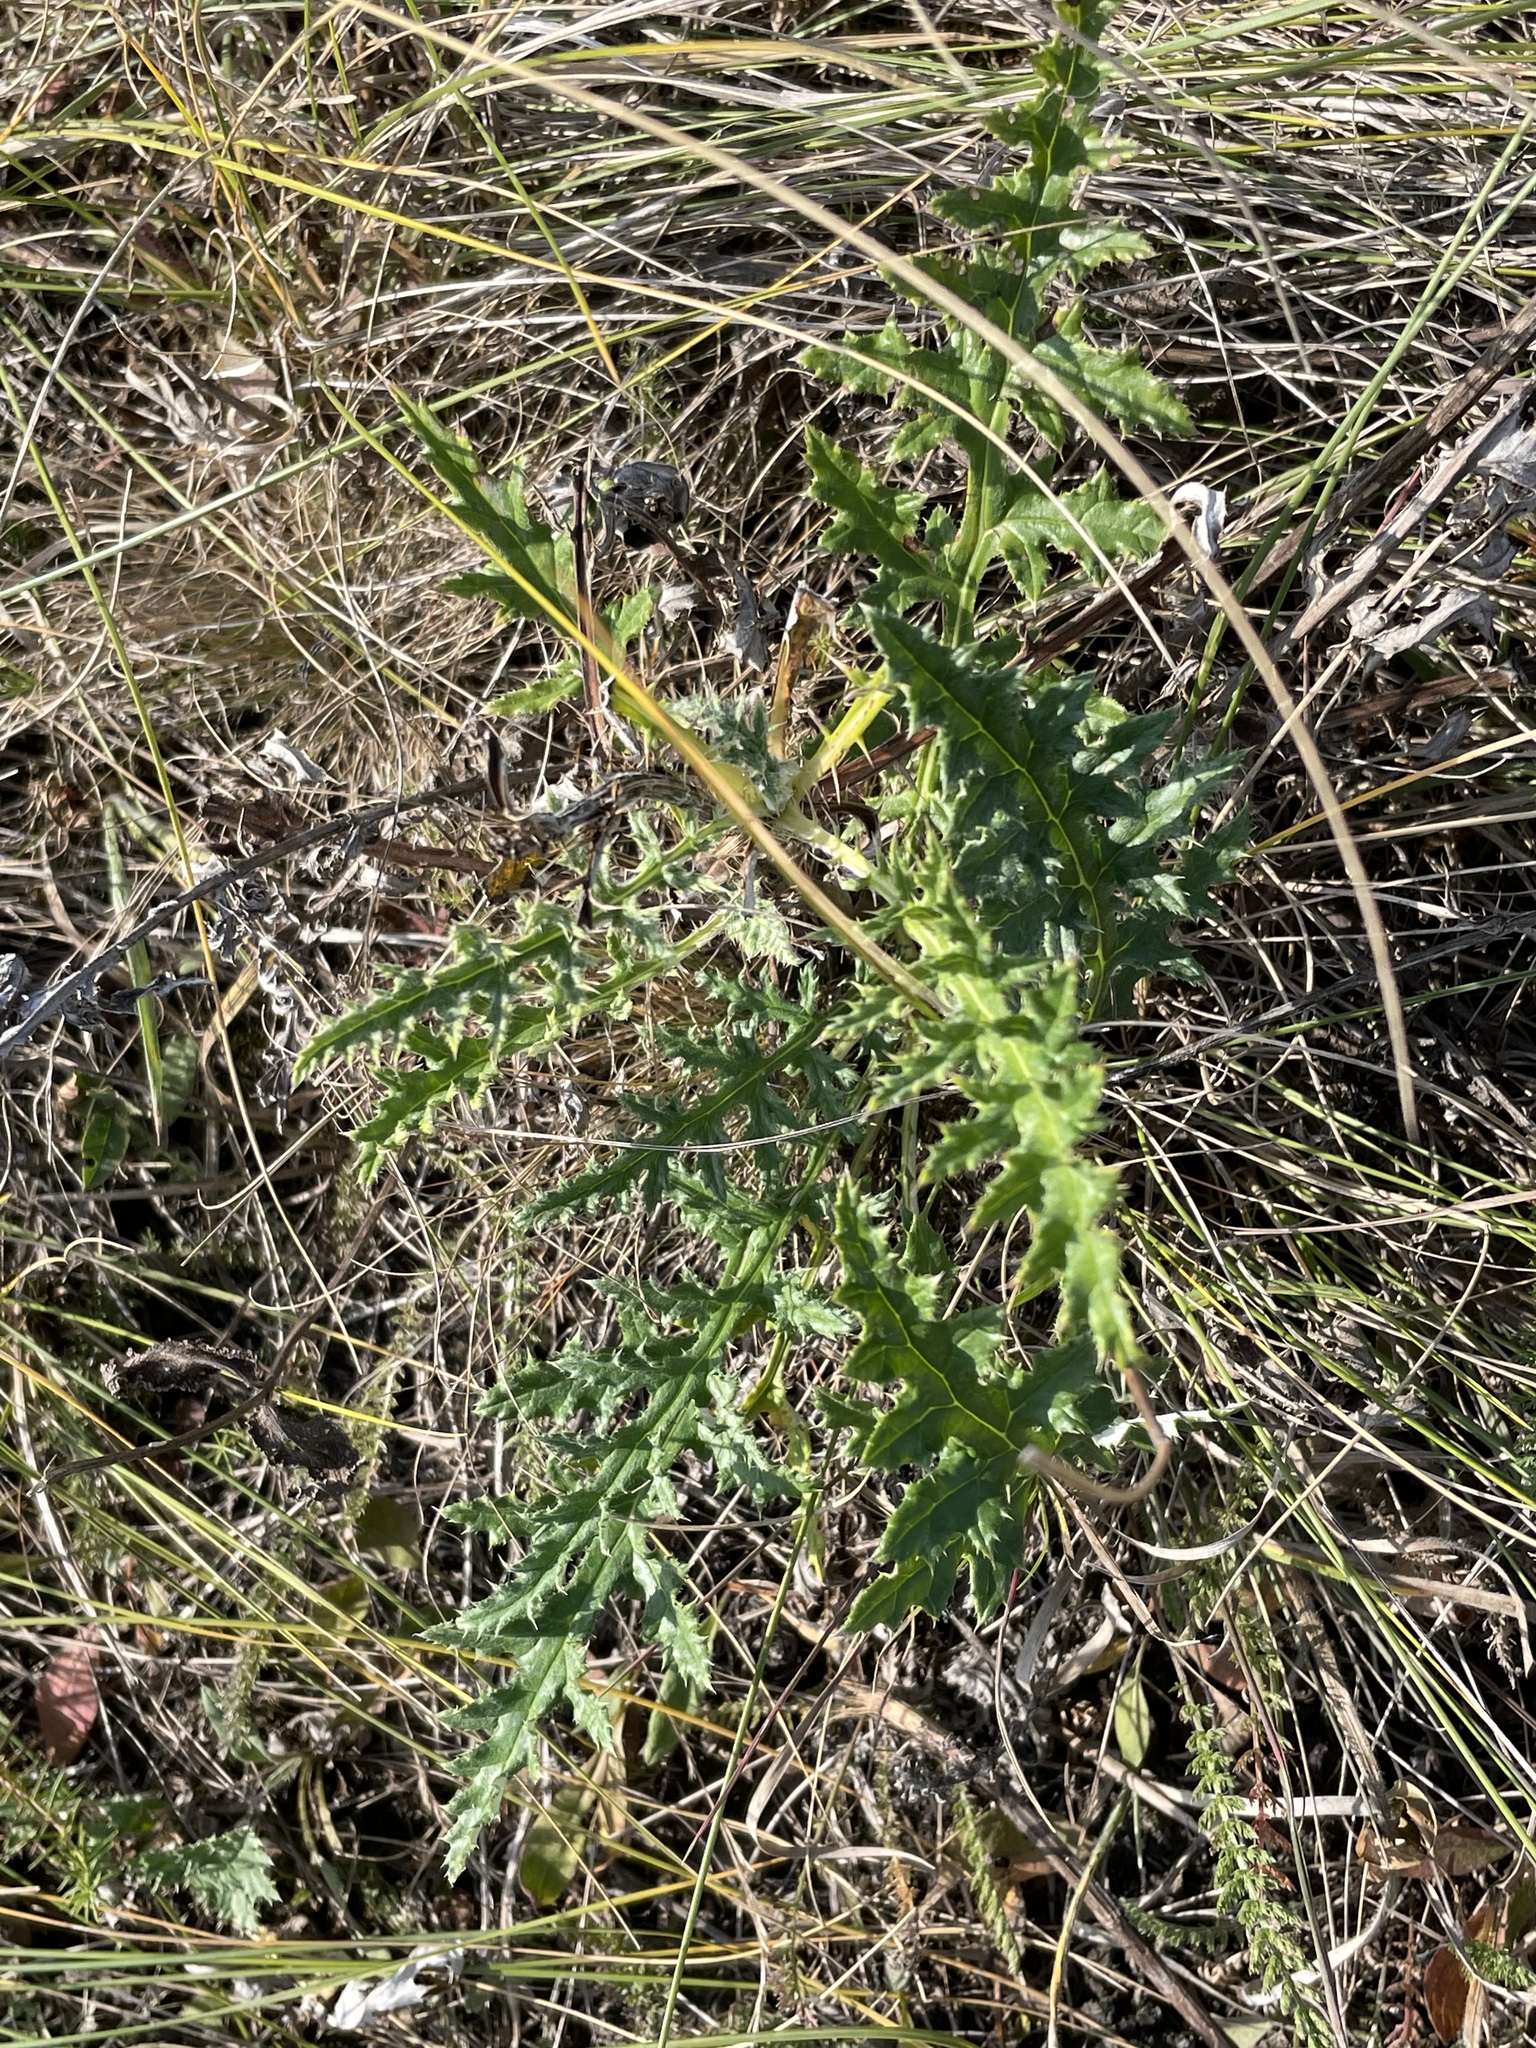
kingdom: Plantae
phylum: Tracheophyta
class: Magnoliopsida
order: Asterales
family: Asteraceae
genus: Echinops
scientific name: Echinops ritro
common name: Globe thistle
